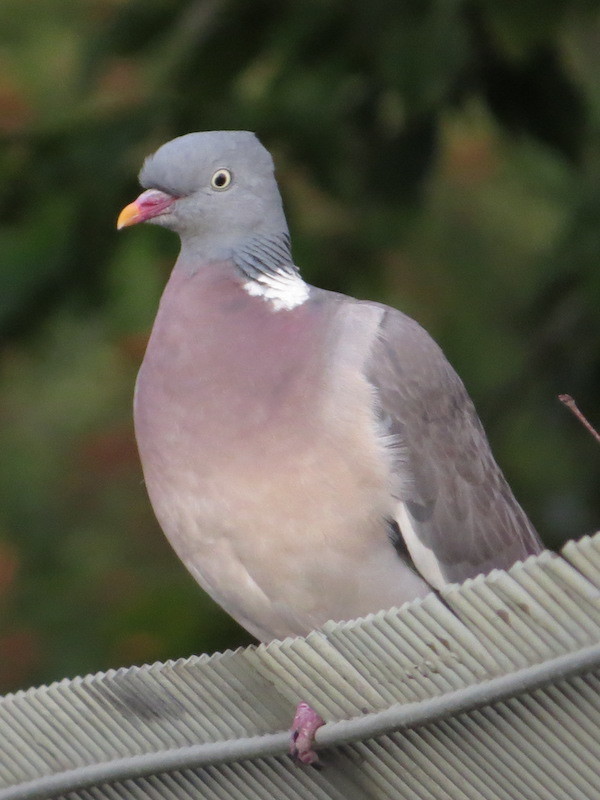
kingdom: Animalia
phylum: Chordata
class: Aves
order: Columbiformes
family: Columbidae
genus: Columba
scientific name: Columba palumbus
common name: Common wood pigeon
